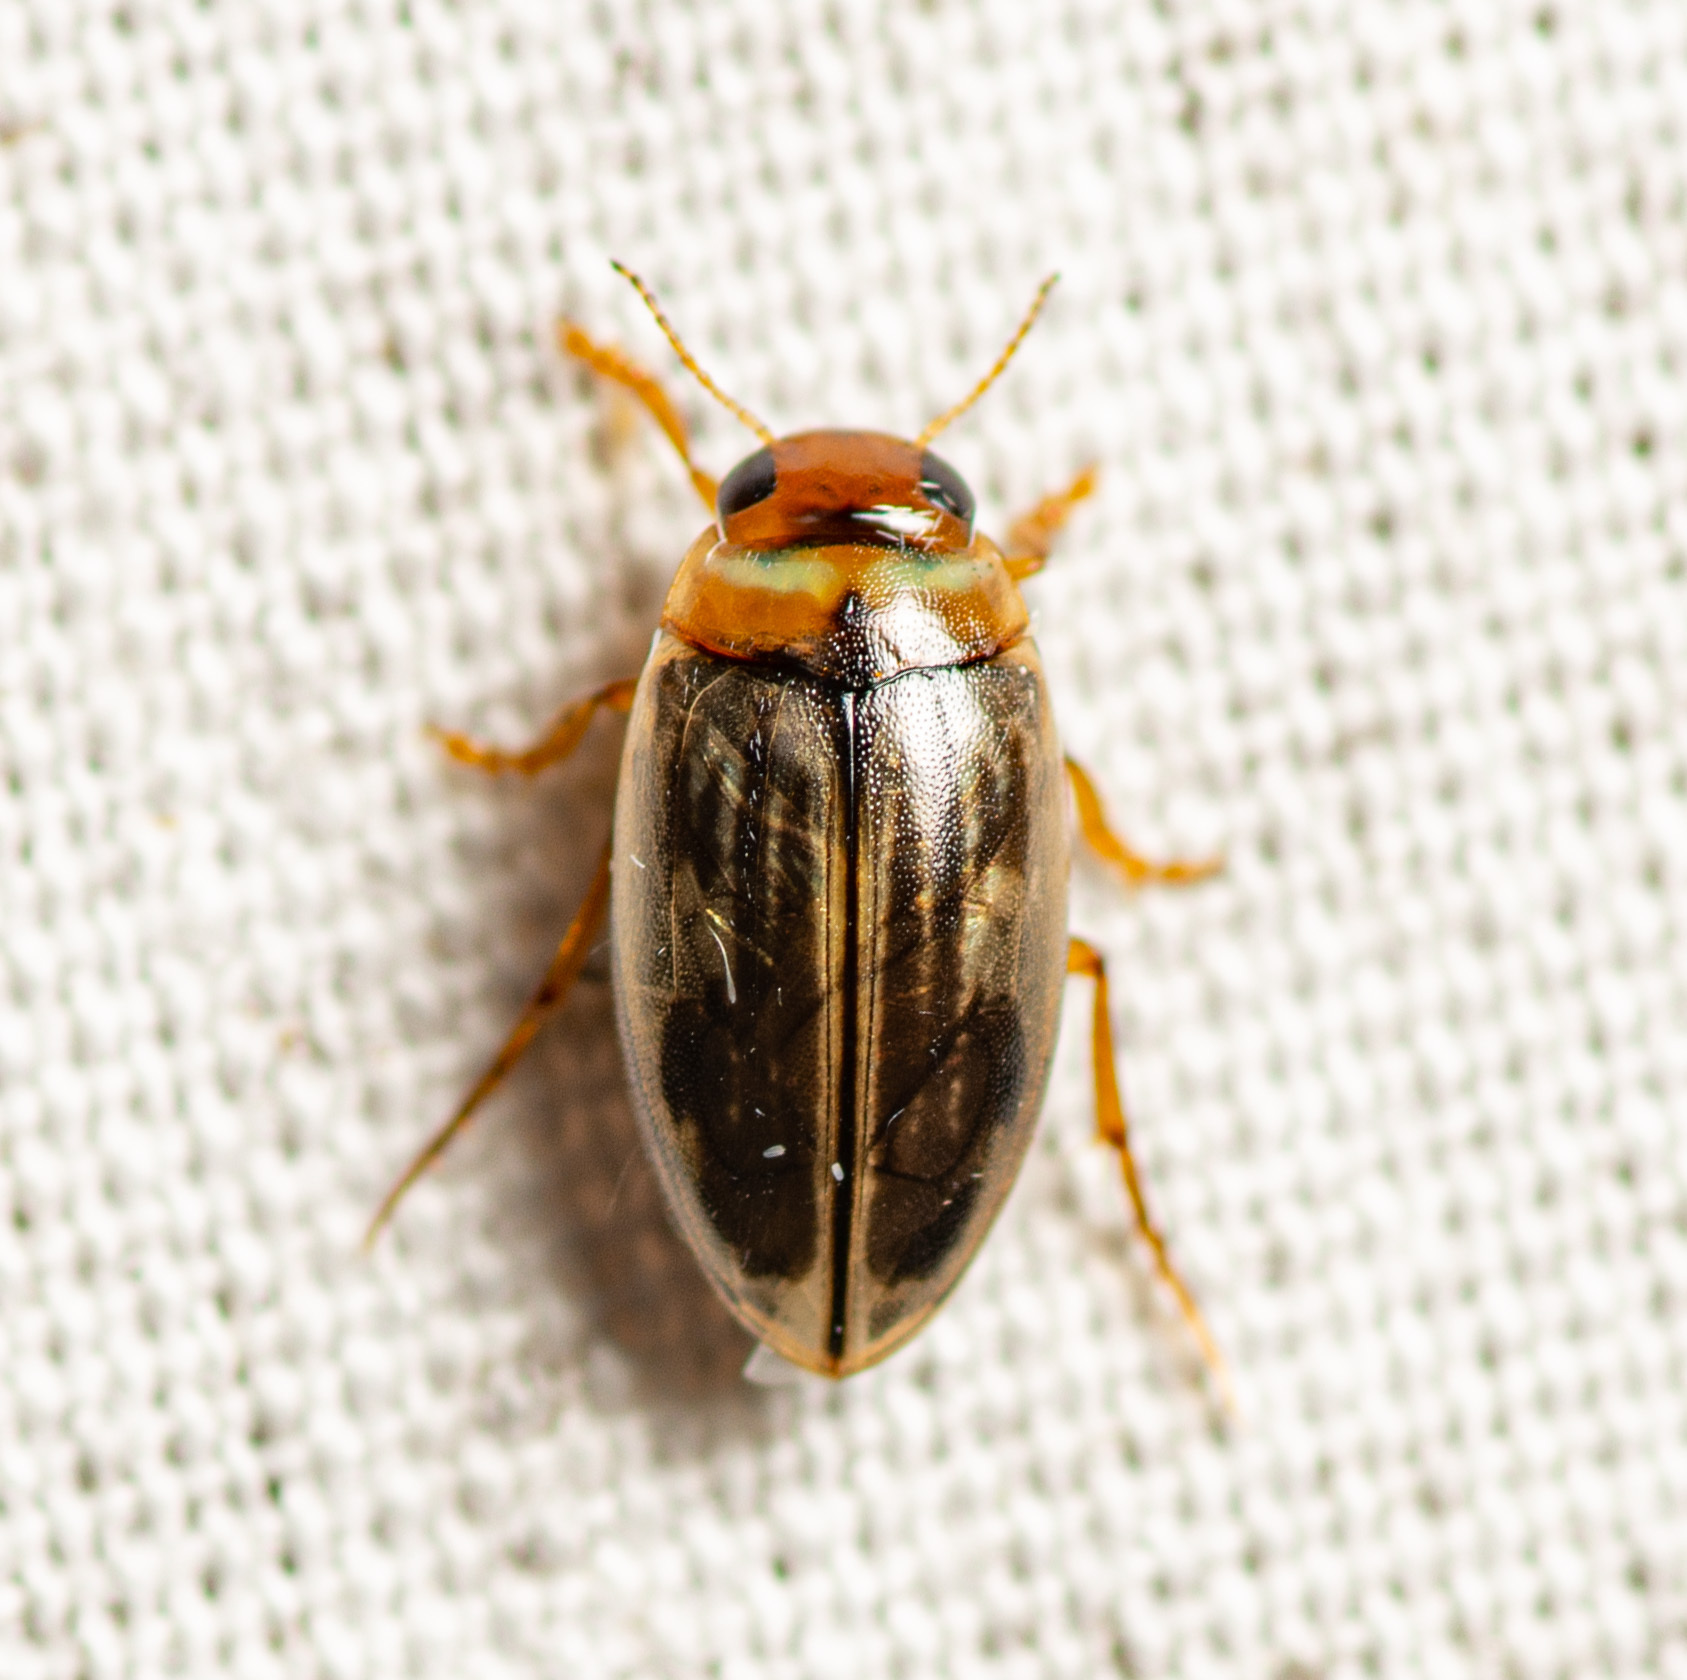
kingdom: Animalia
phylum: Arthropoda
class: Insecta
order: Coleoptera
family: Dytiscidae
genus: Hygrotus
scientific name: Hygrotus nubilus
